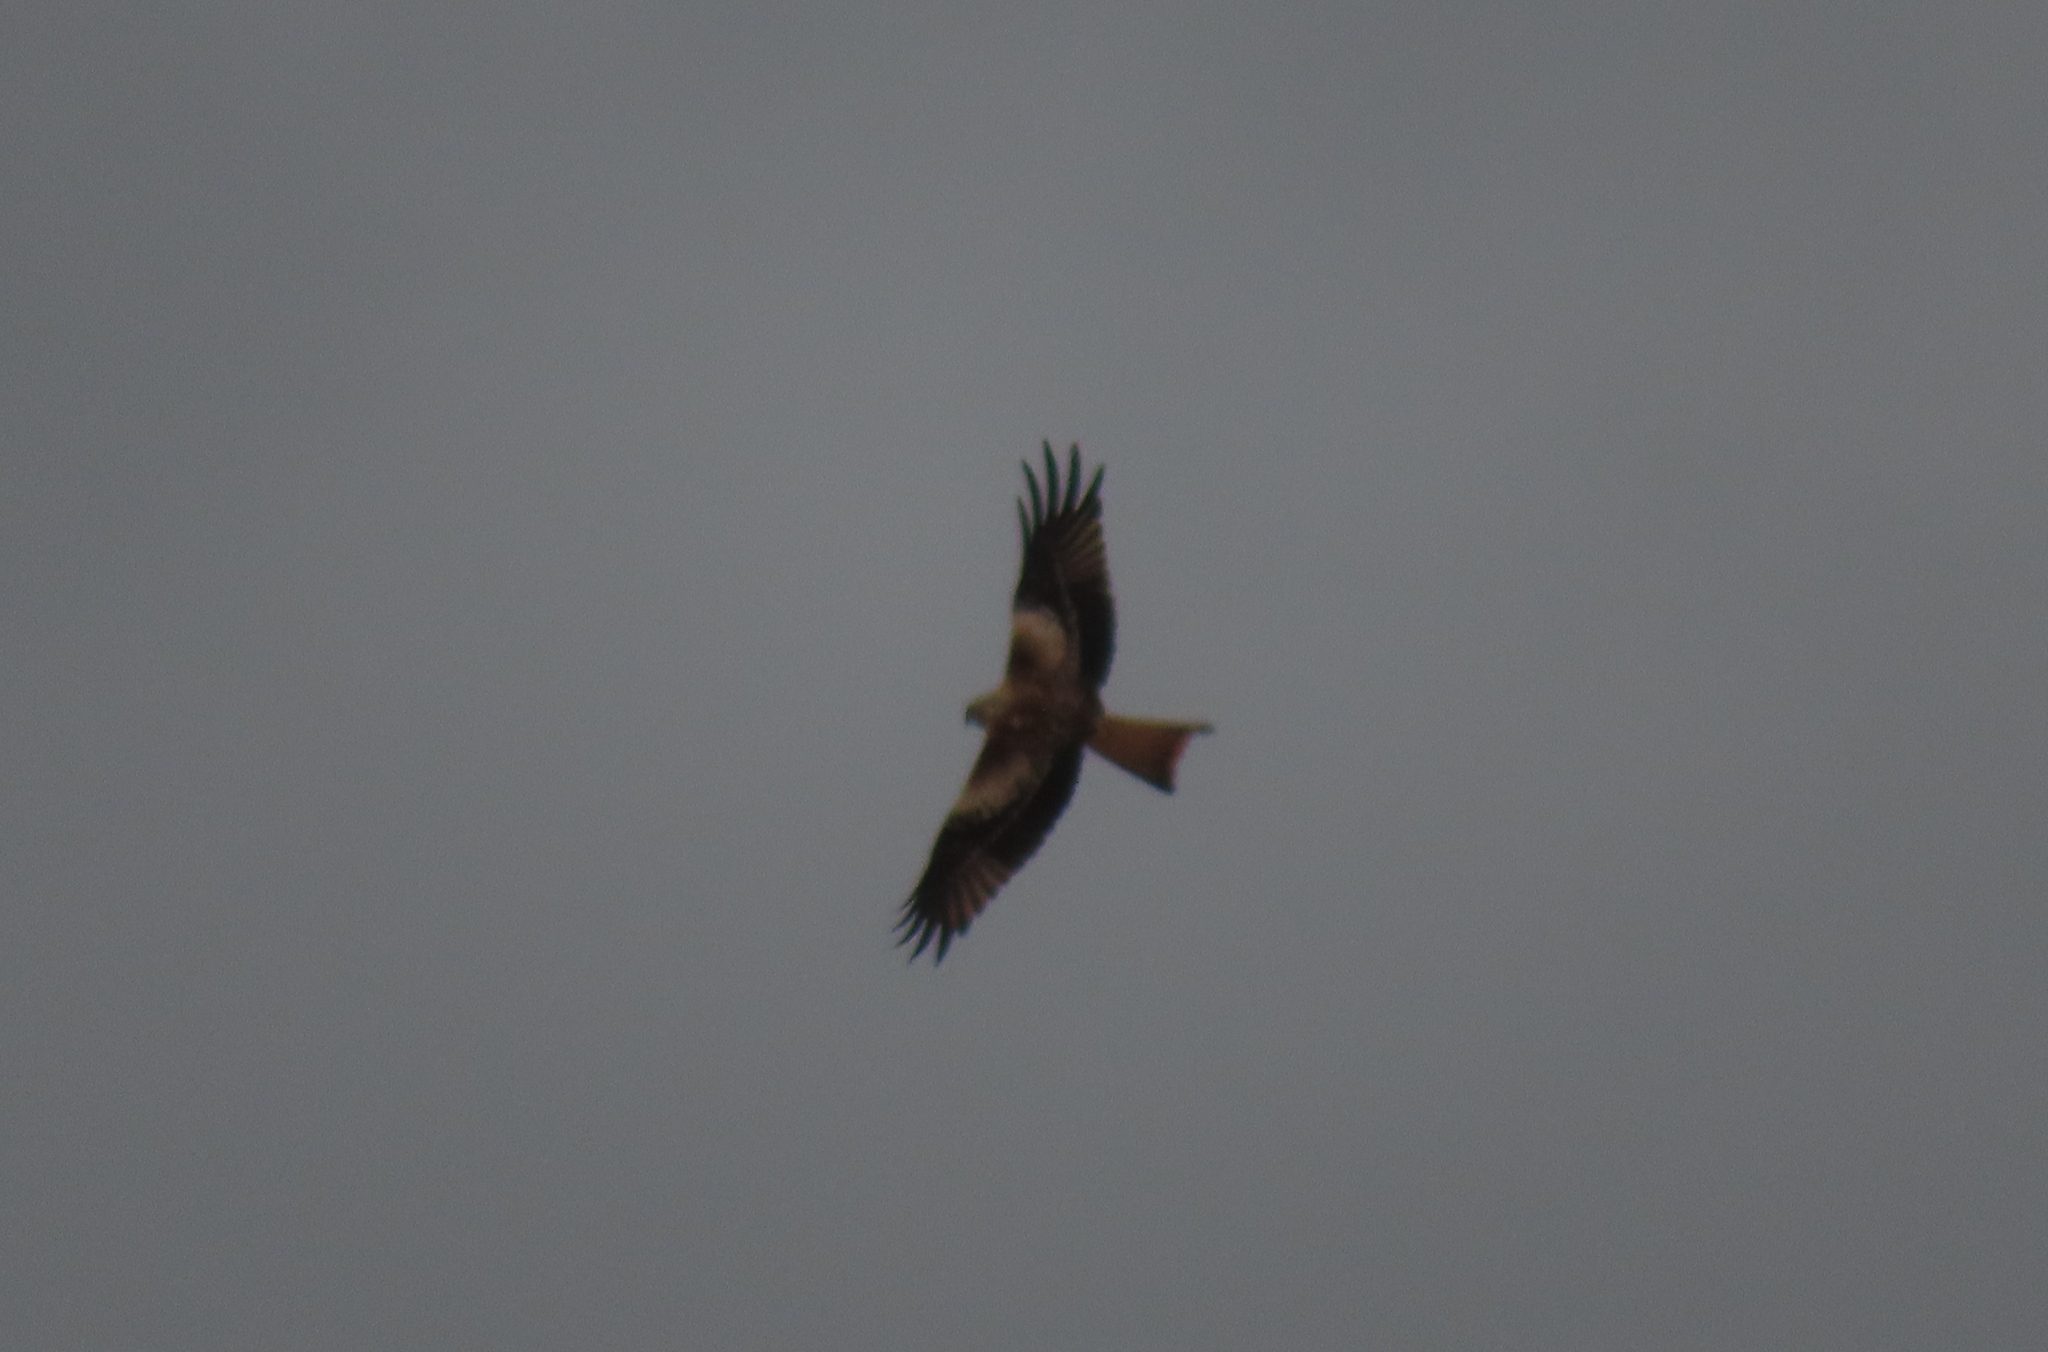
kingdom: Animalia
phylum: Chordata
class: Aves
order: Accipitriformes
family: Accipitridae
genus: Milvus
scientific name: Milvus milvus
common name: Red kite
